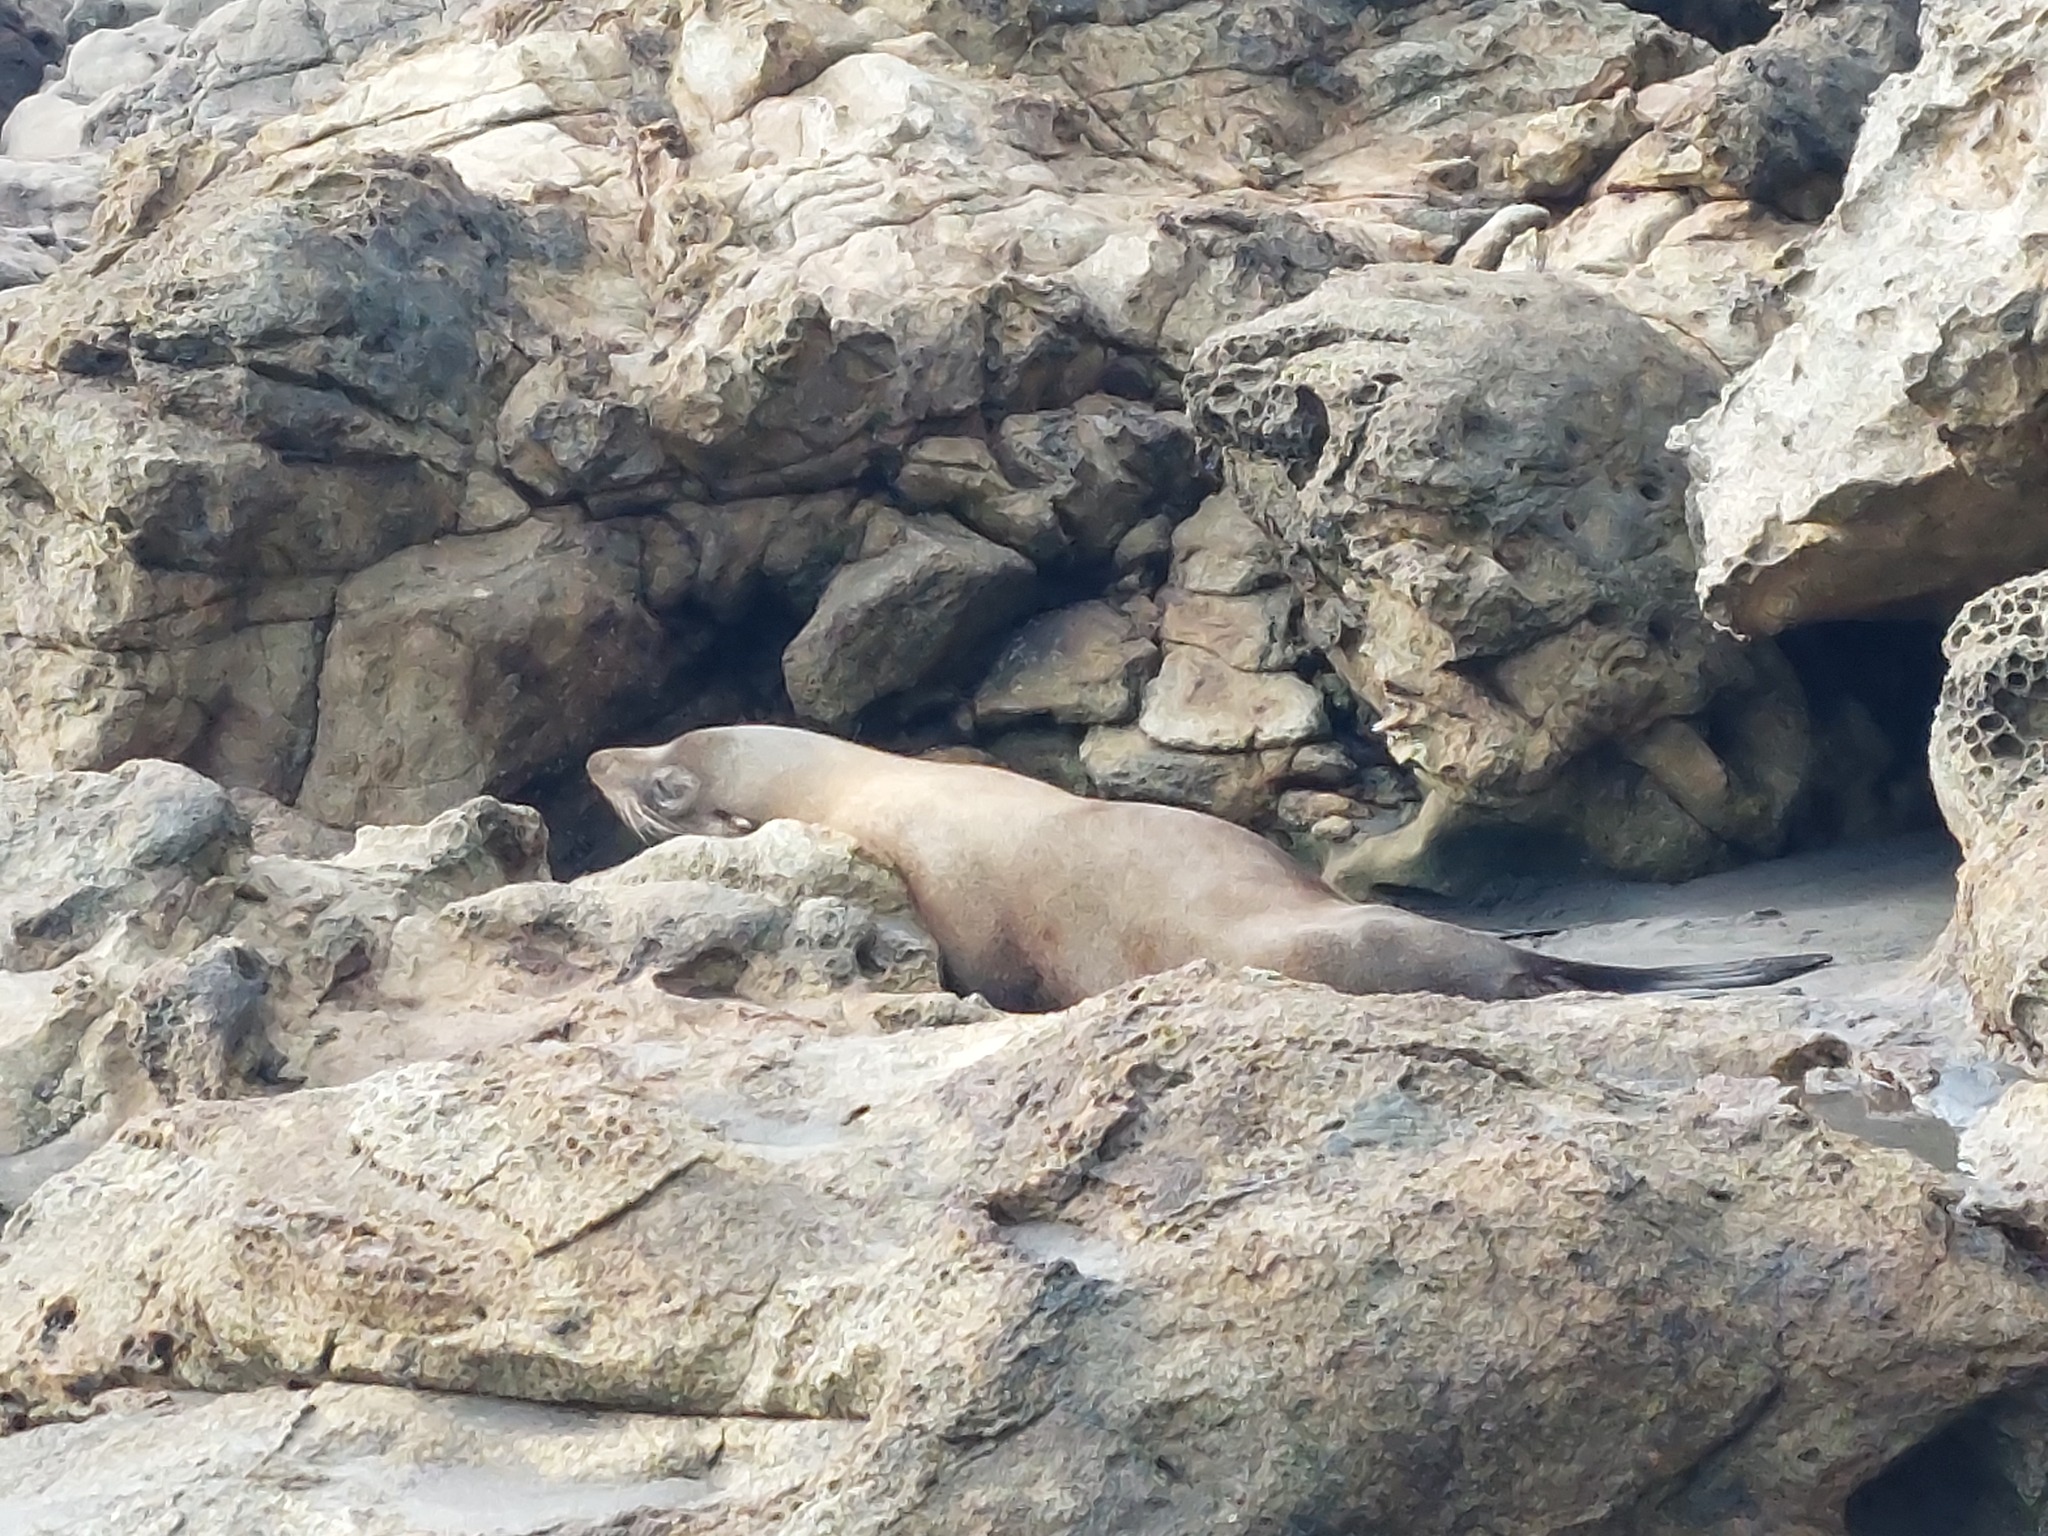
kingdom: Animalia
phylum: Chordata
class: Mammalia
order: Carnivora
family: Otariidae
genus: Arctocephalus
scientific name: Arctocephalus forsteri
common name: New zealand fur seal
